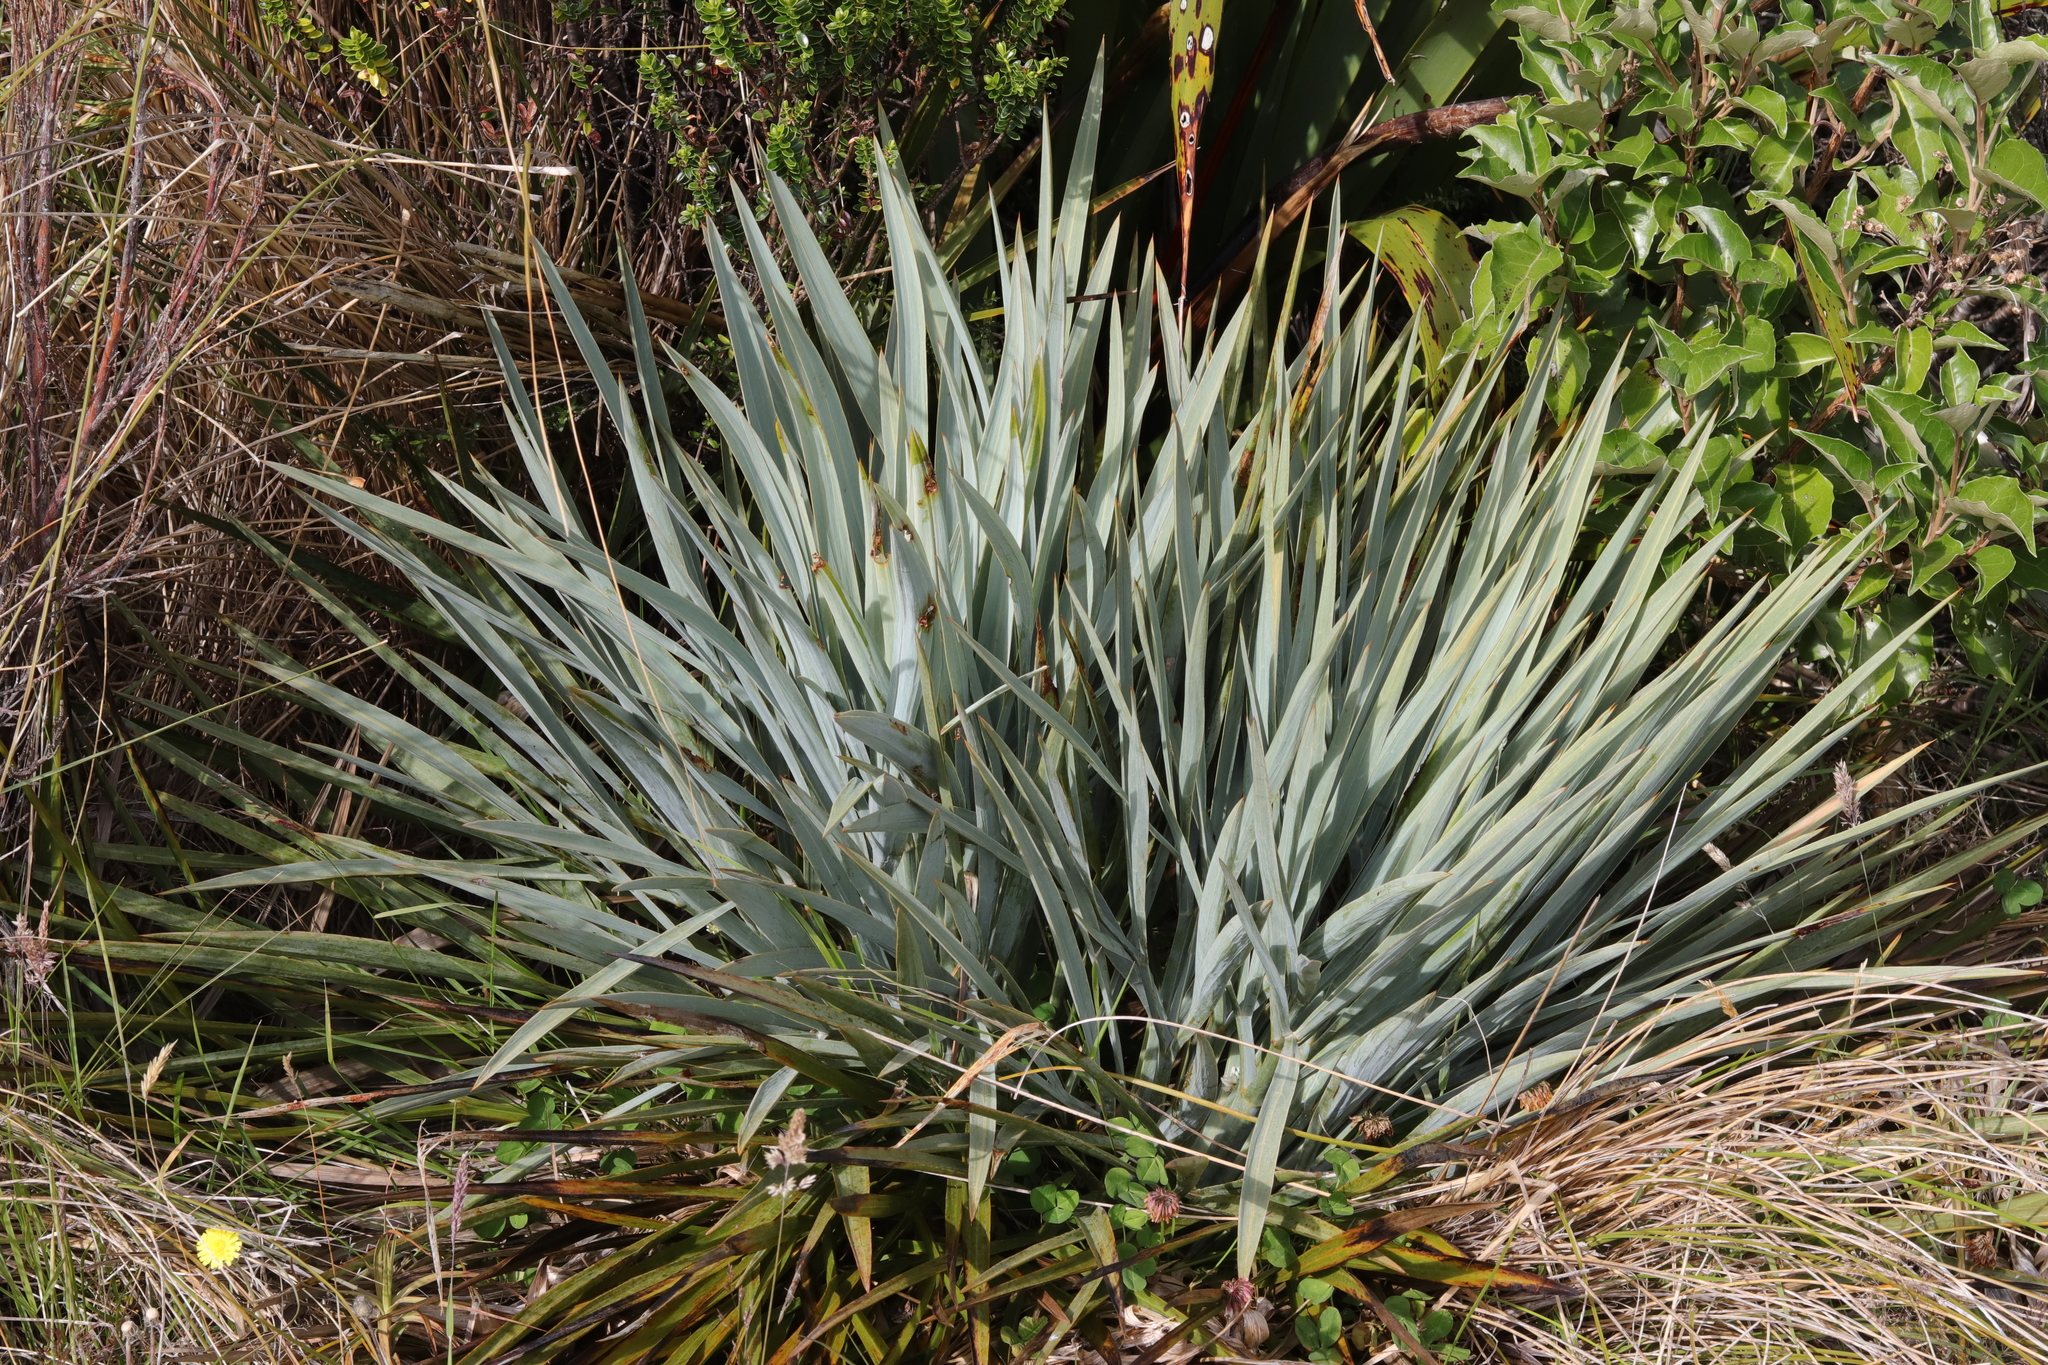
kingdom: Plantae
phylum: Tracheophyta
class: Magnoliopsida
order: Apiales
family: Apiaceae
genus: Aciphylla
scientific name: Aciphylla scott-thomsonii
